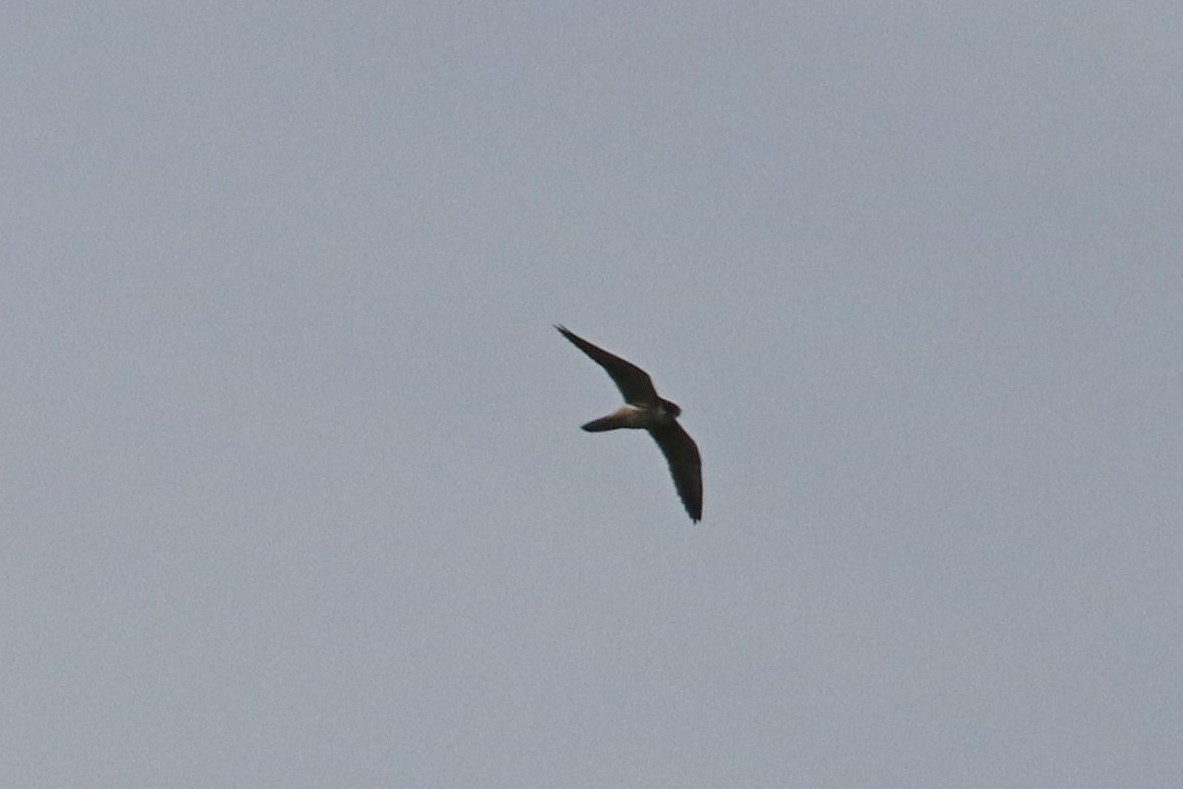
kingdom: Animalia
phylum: Chordata
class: Aves
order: Falconiformes
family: Falconidae
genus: Falco
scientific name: Falco subbuteo
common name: Eurasian hobby
